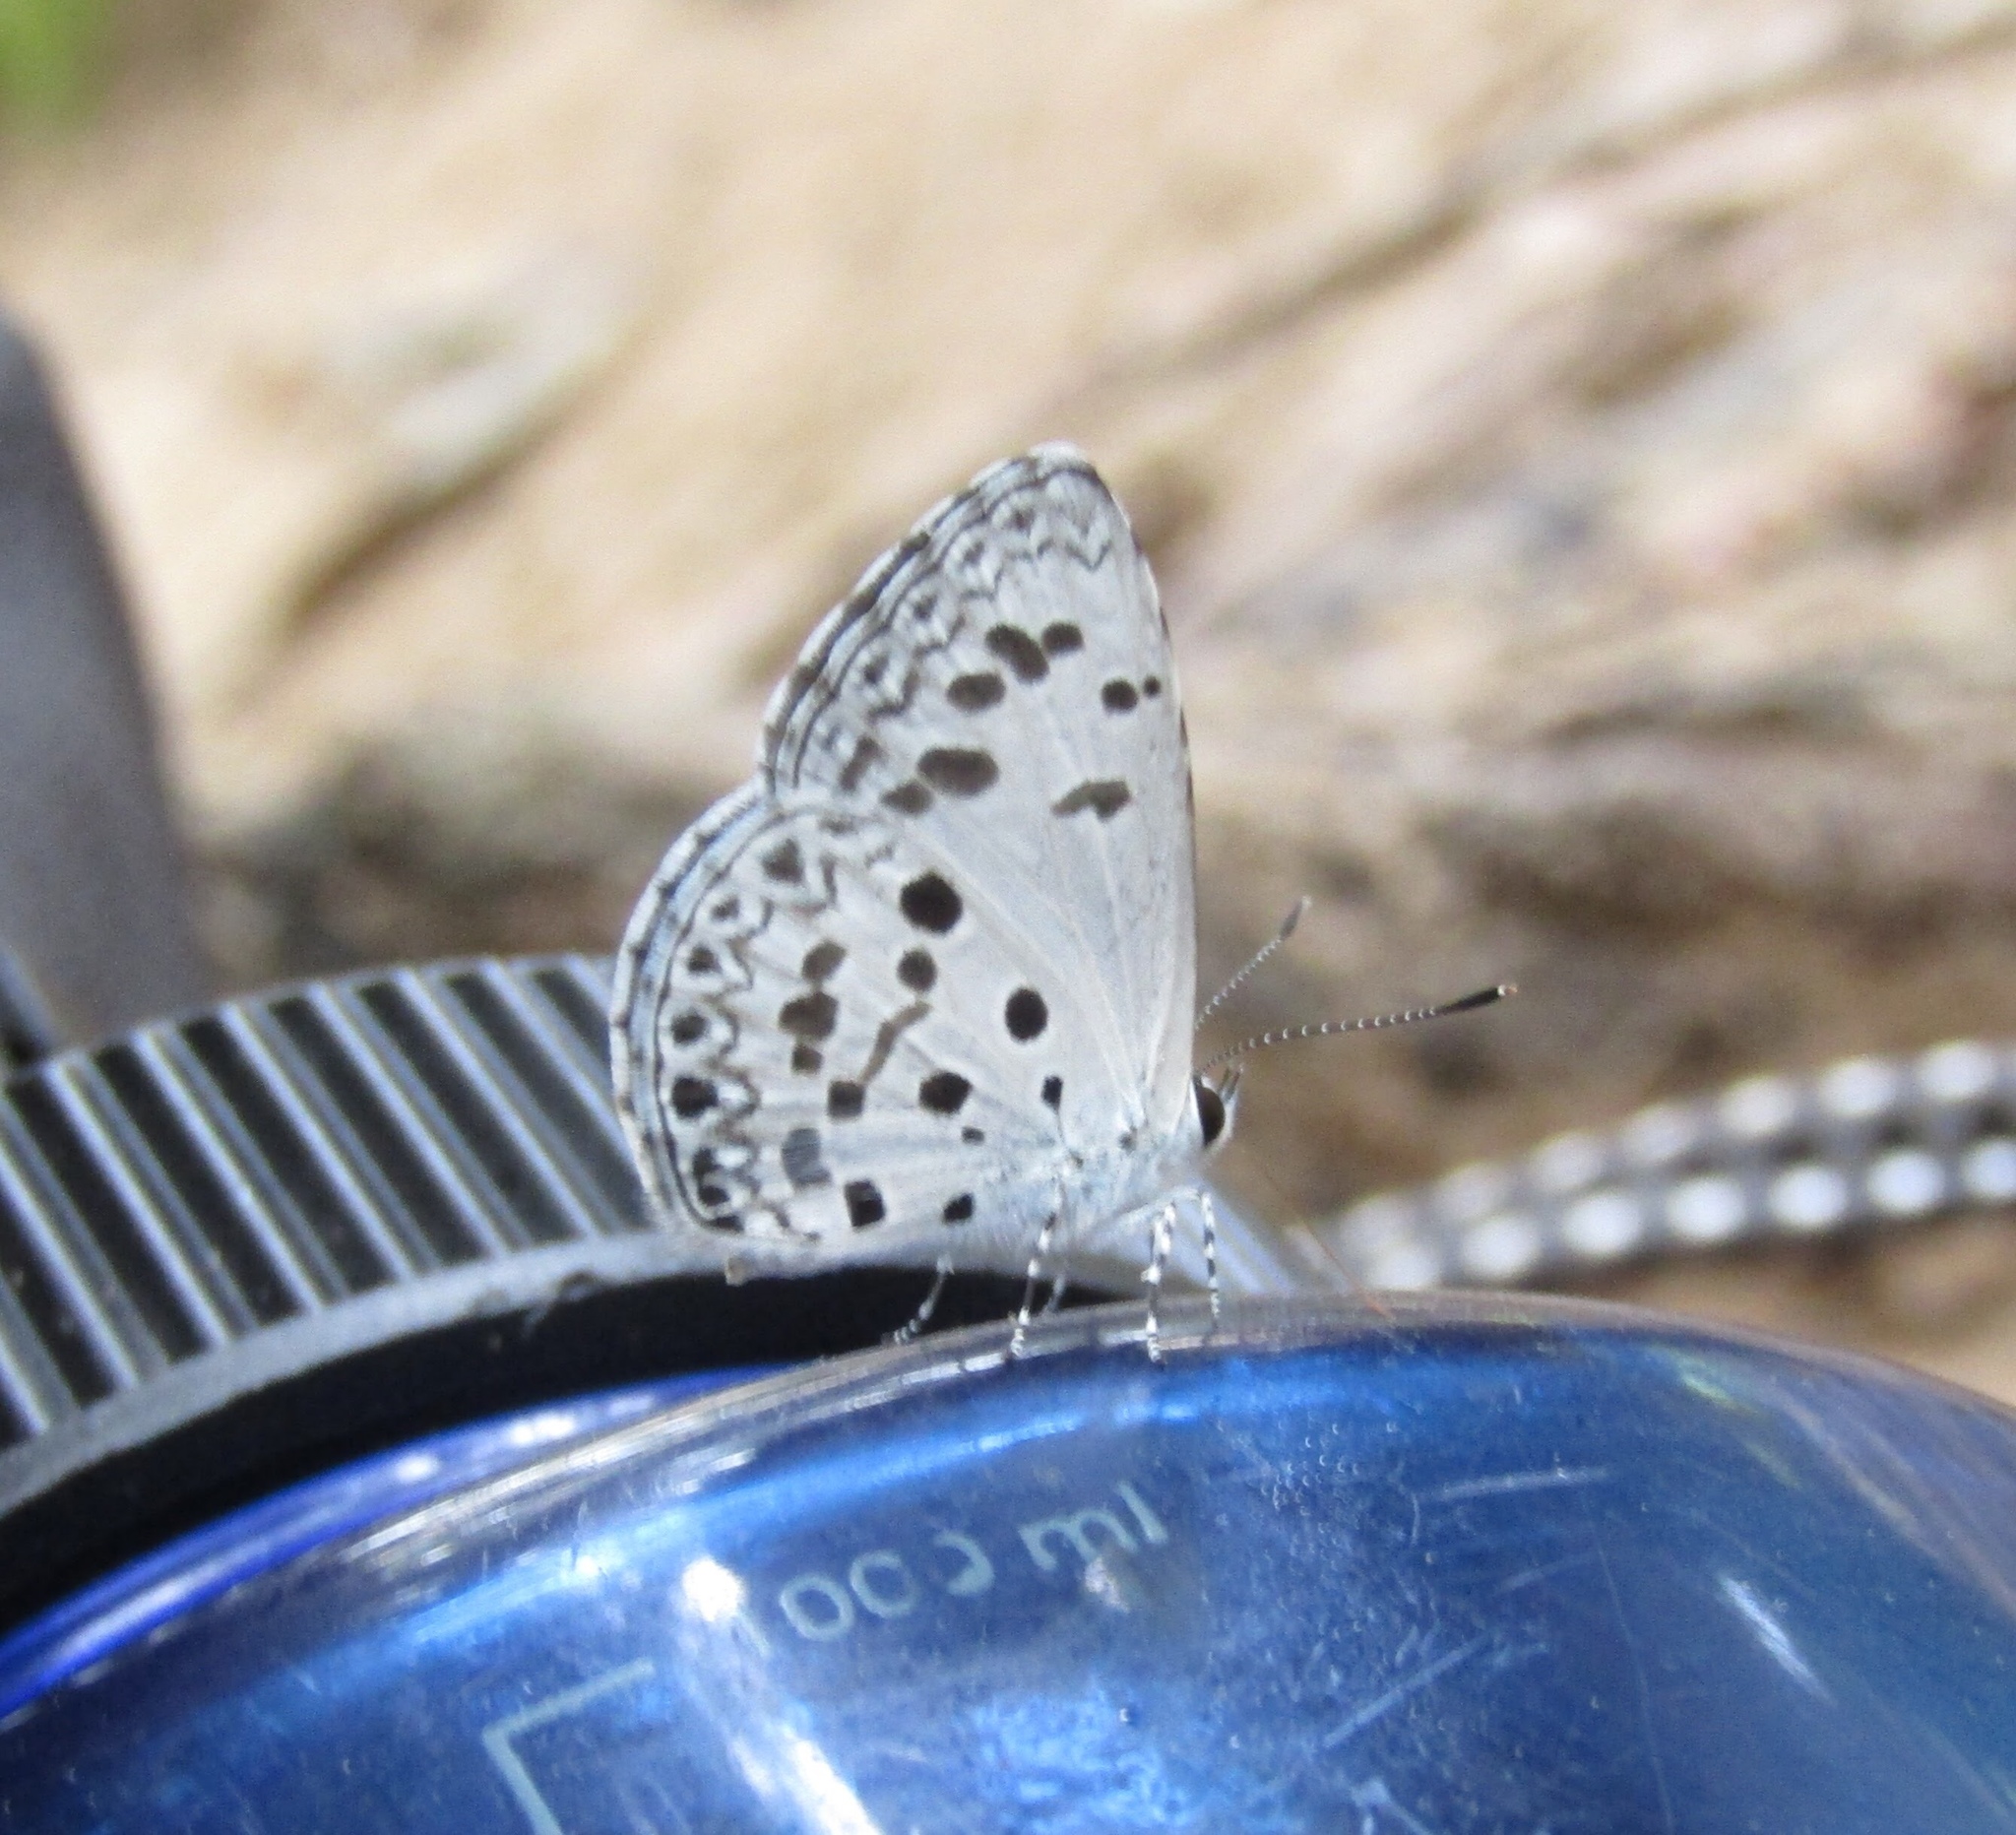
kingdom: Animalia
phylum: Arthropoda
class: Insecta
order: Lepidoptera
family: Lycaenidae
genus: Acytolepis
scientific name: Acytolepis puspa
